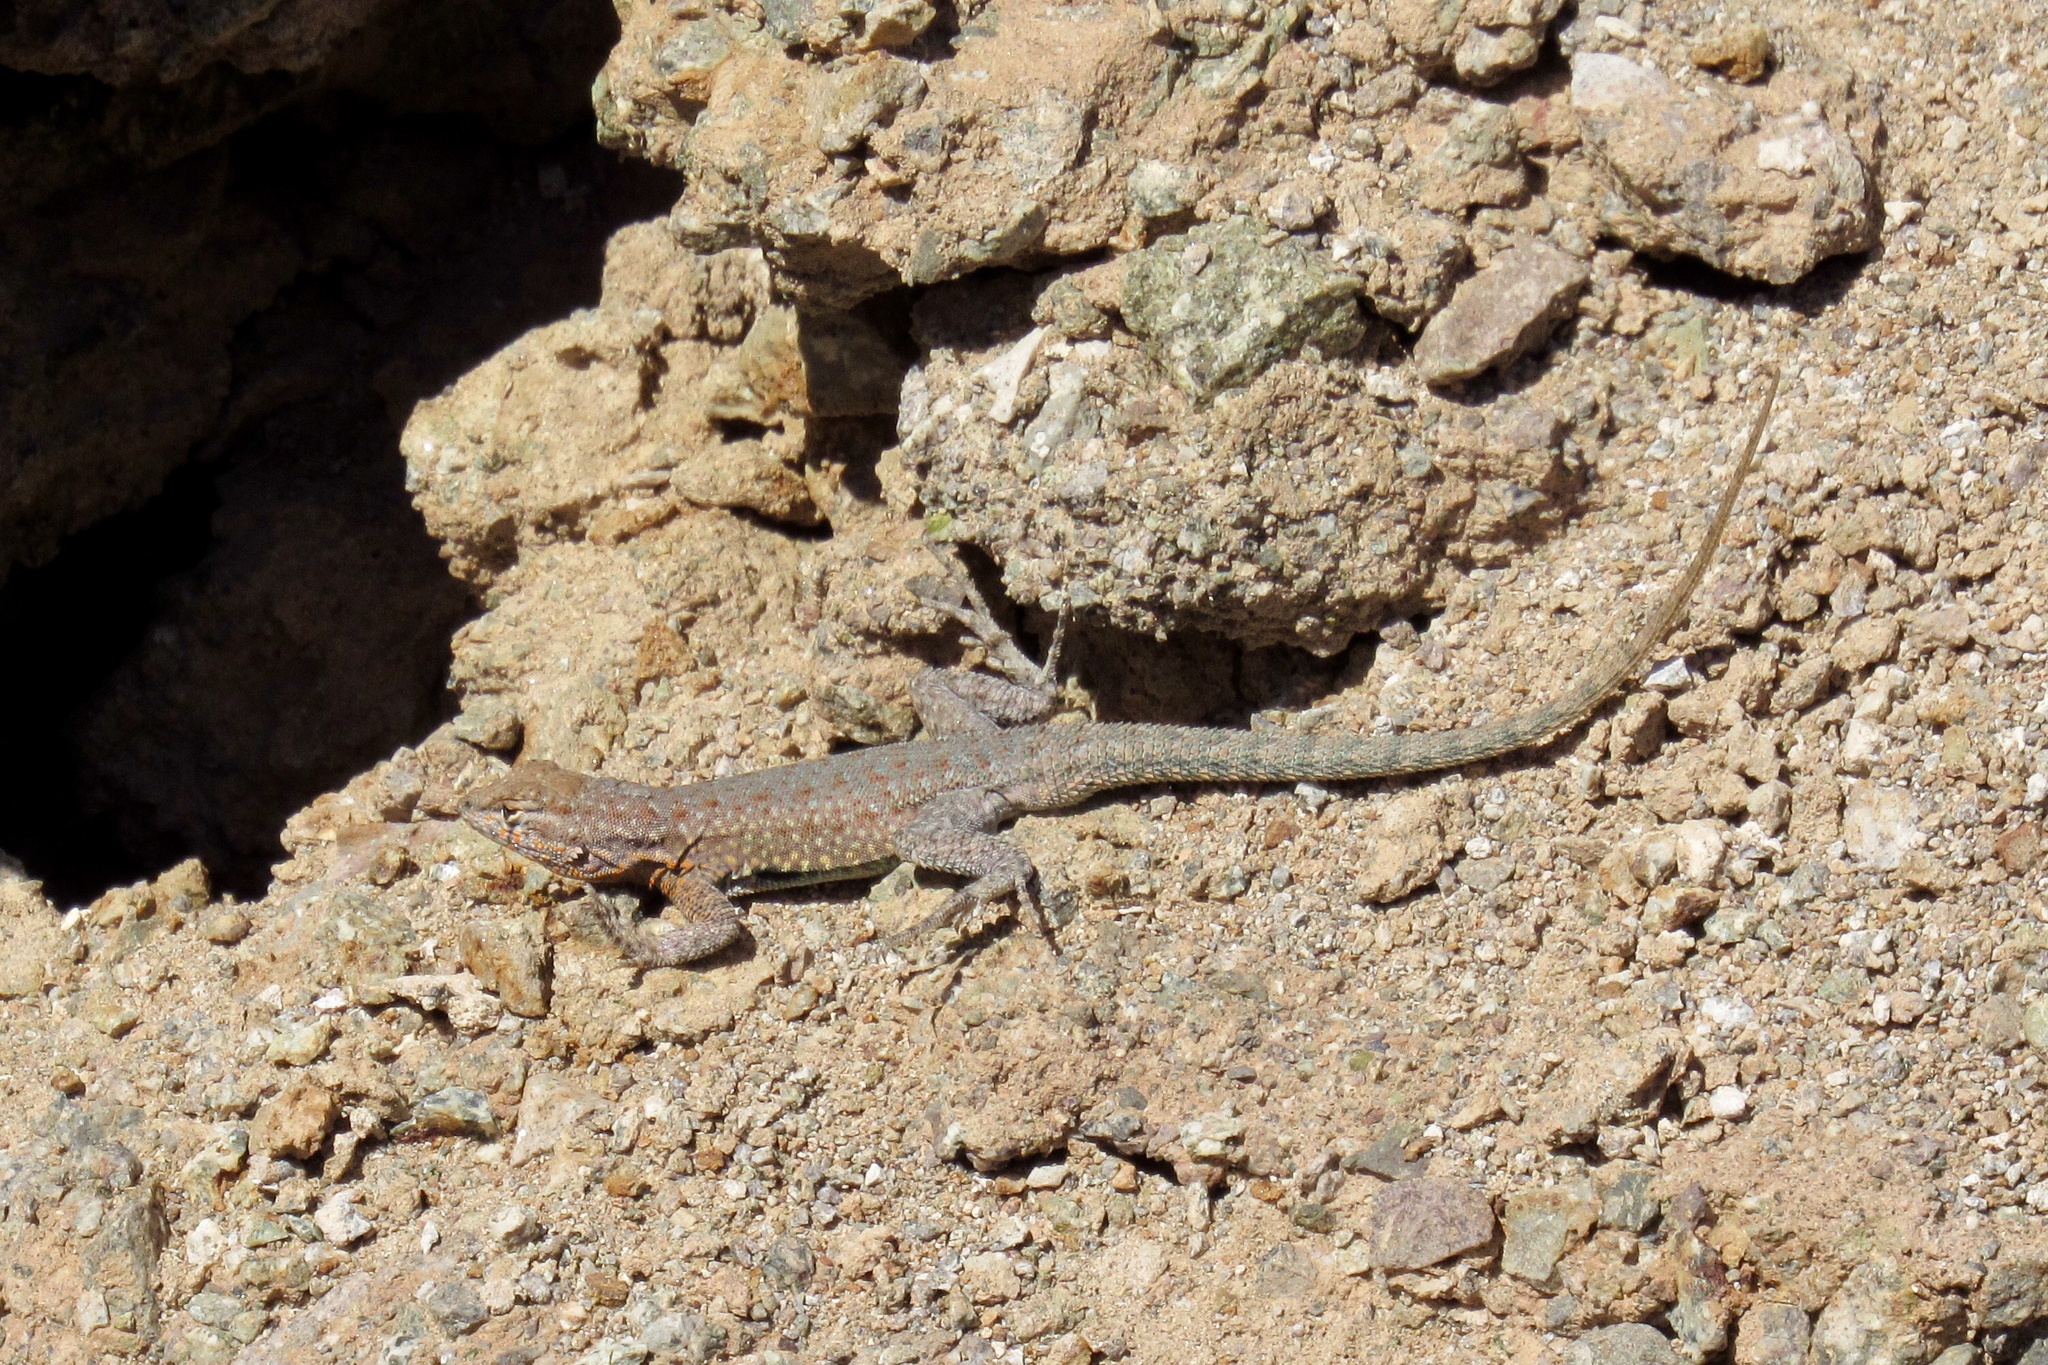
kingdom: Animalia
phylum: Chordata
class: Squamata
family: Phrynosomatidae
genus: Uta
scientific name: Uta stansburiana
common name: Side-blotched lizard
